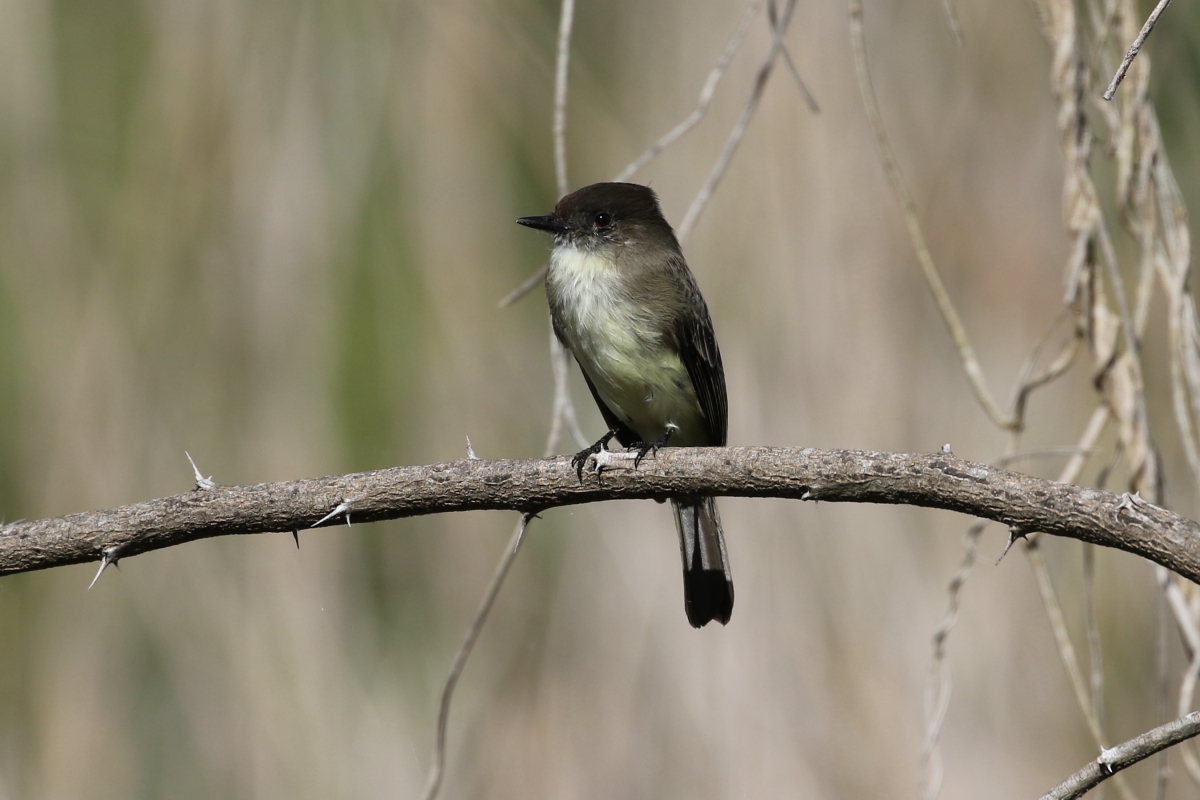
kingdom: Animalia
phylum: Chordata
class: Aves
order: Passeriformes
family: Tyrannidae
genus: Sayornis
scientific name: Sayornis phoebe
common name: Eastern phoebe
